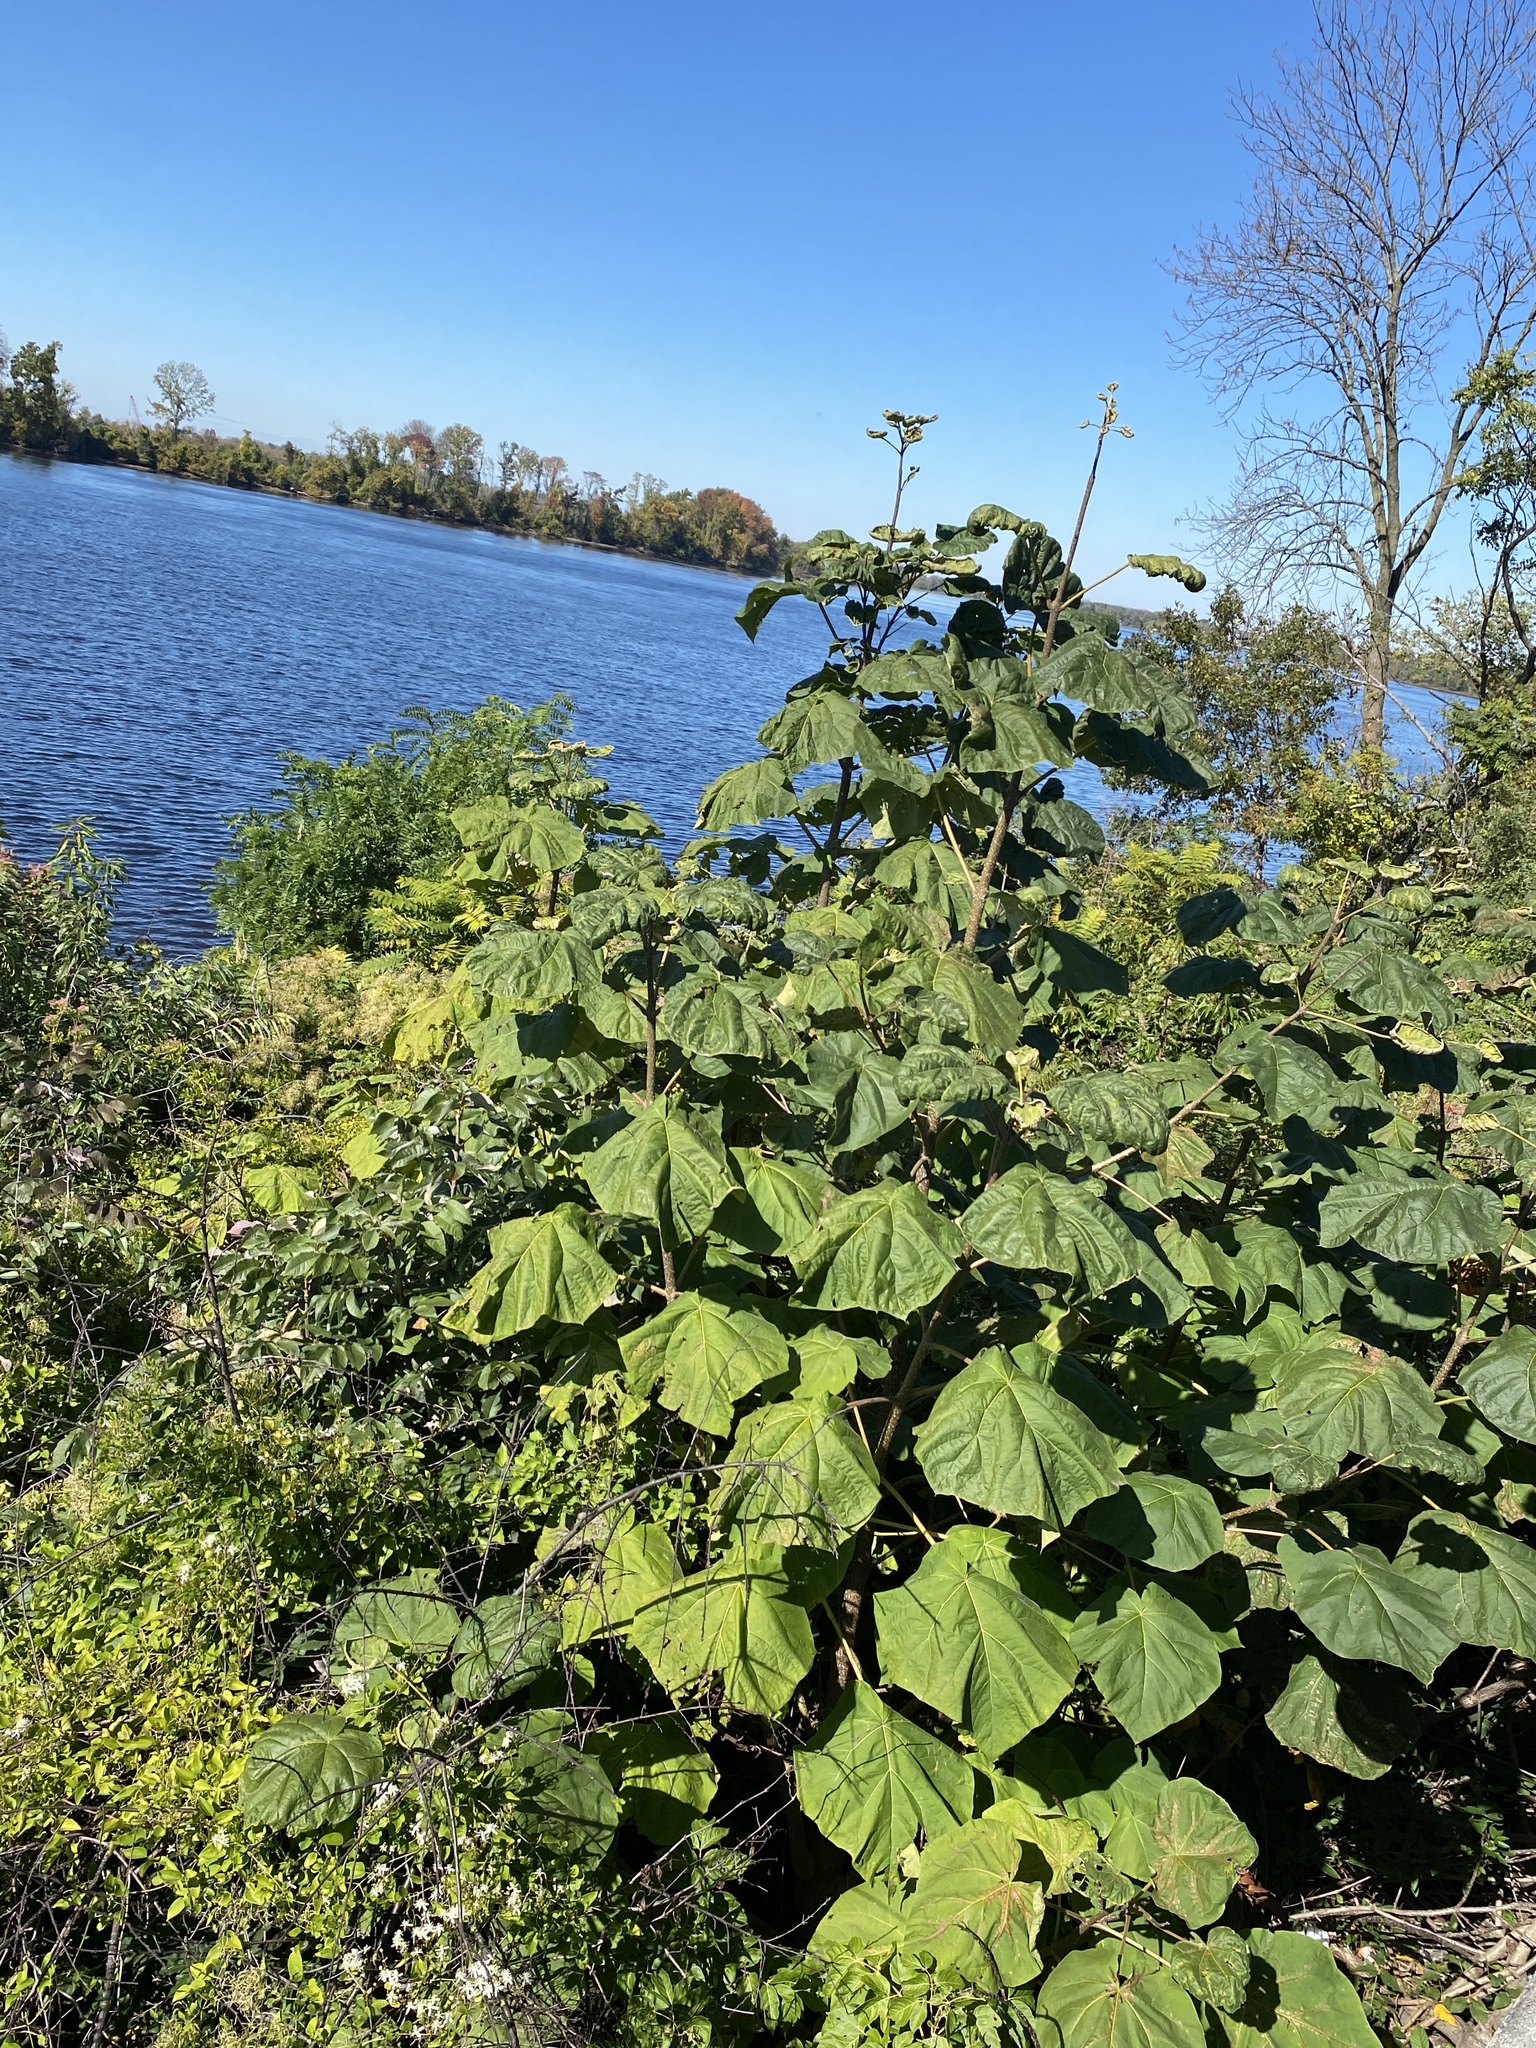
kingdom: Plantae
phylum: Tracheophyta
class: Magnoliopsida
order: Lamiales
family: Paulowniaceae
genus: Paulownia
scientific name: Paulownia tomentosa
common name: Foxglove-tree
